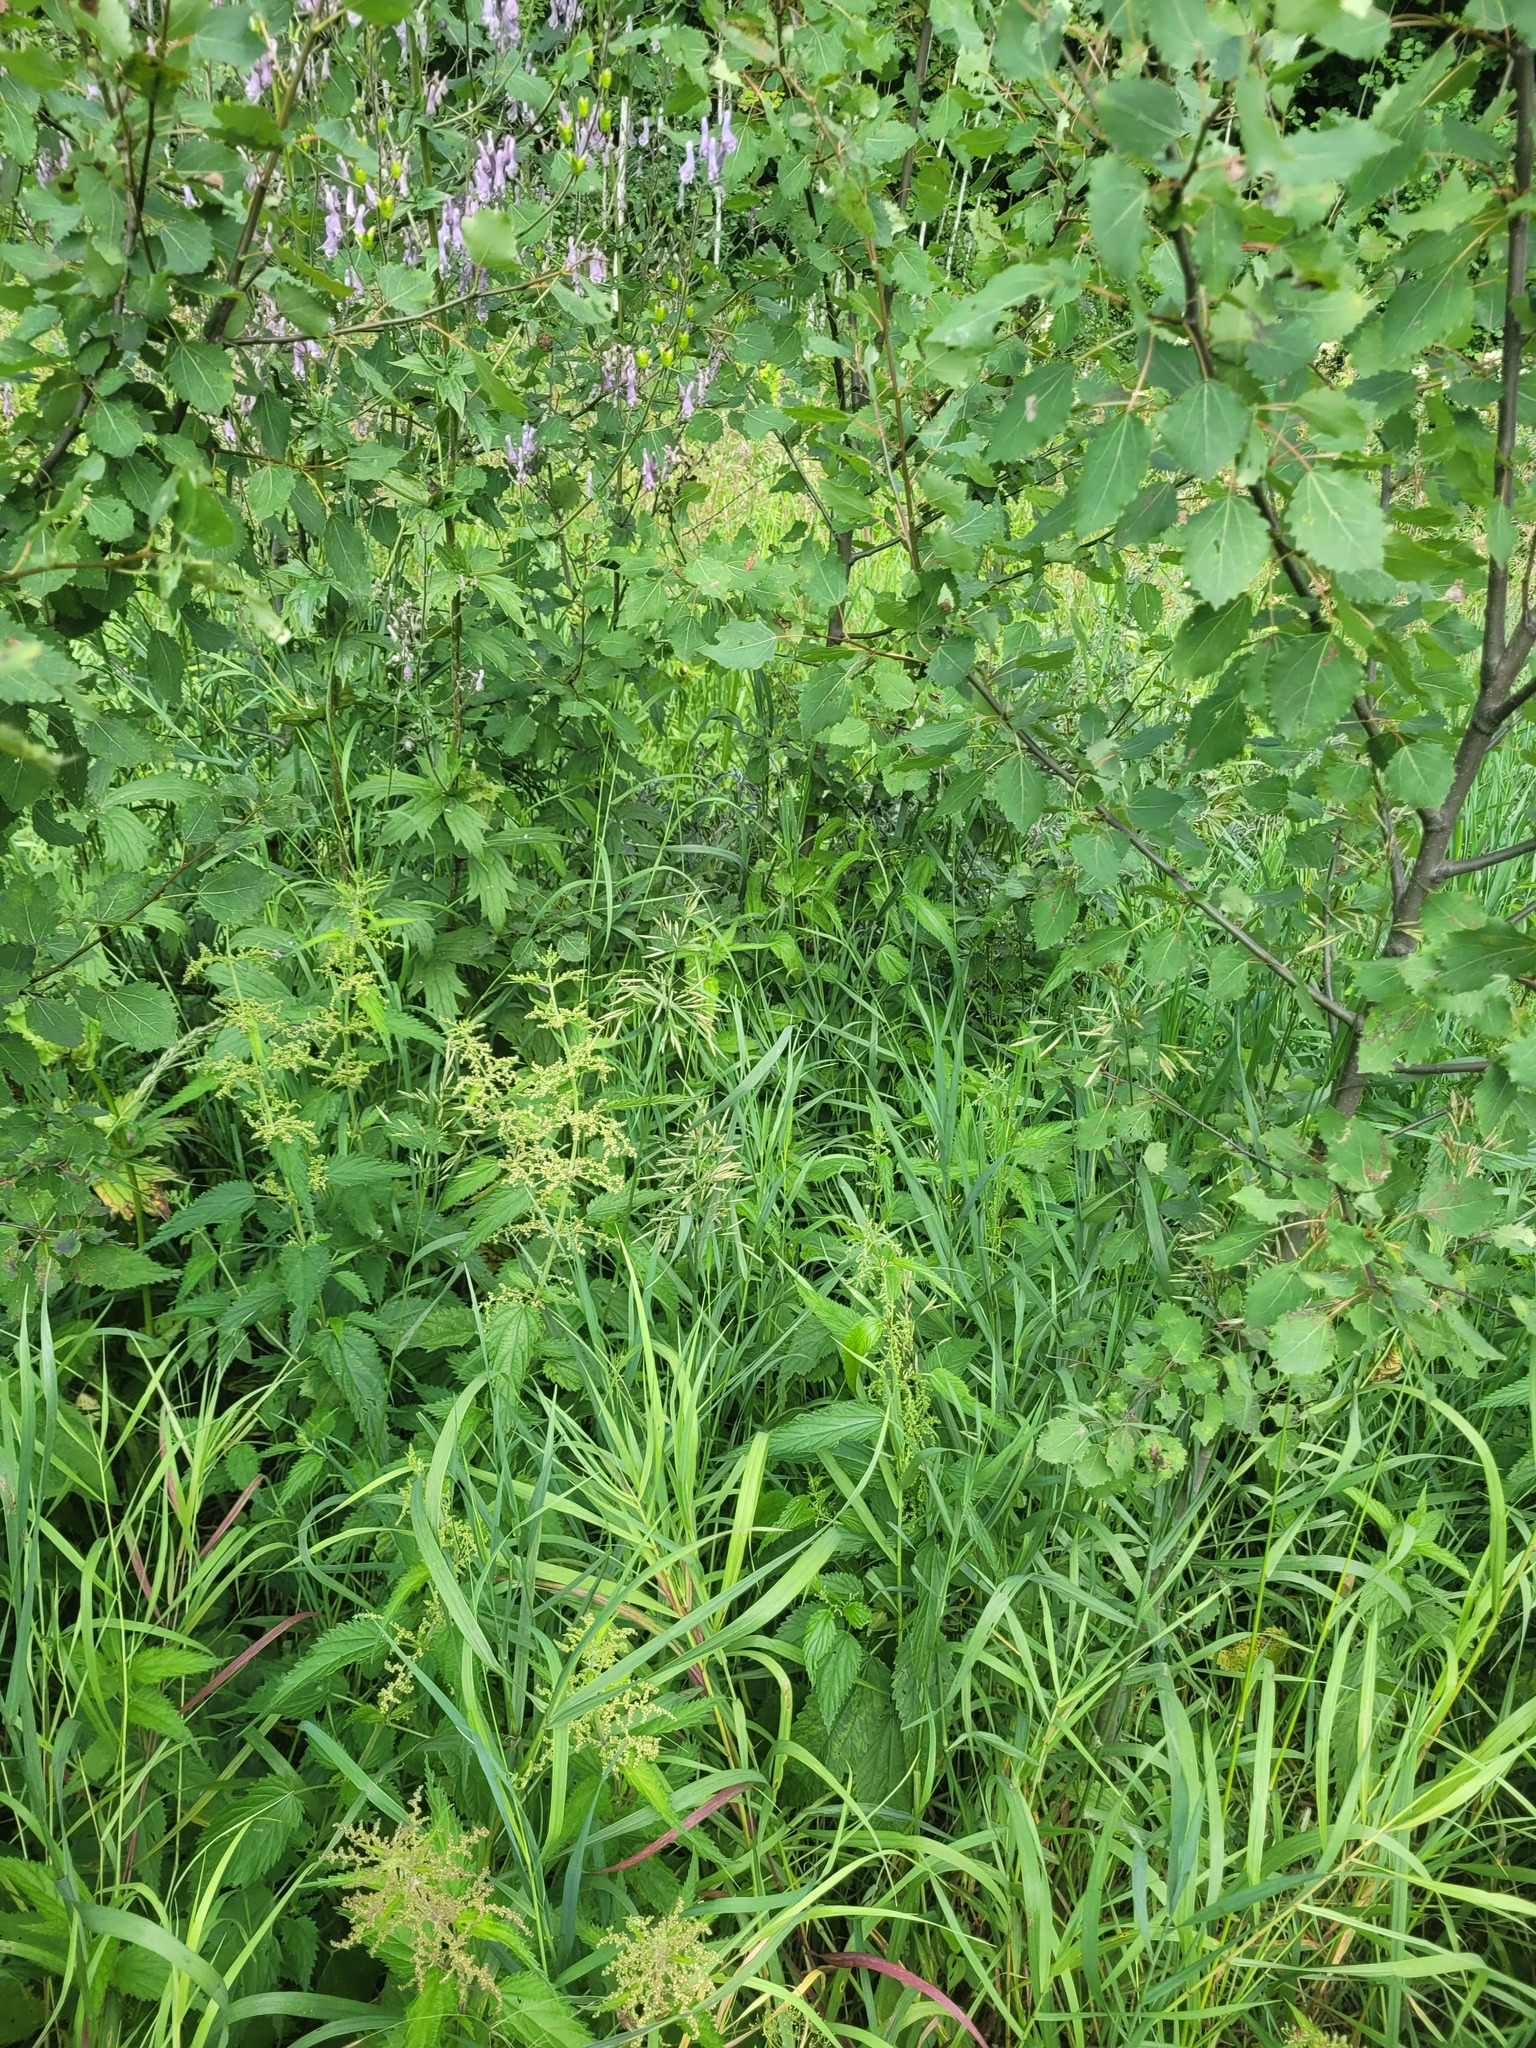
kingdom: Plantae
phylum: Tracheophyta
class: Liliopsida
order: Poales
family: Poaceae
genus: Bromus
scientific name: Bromus inermis
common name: Smooth brome
